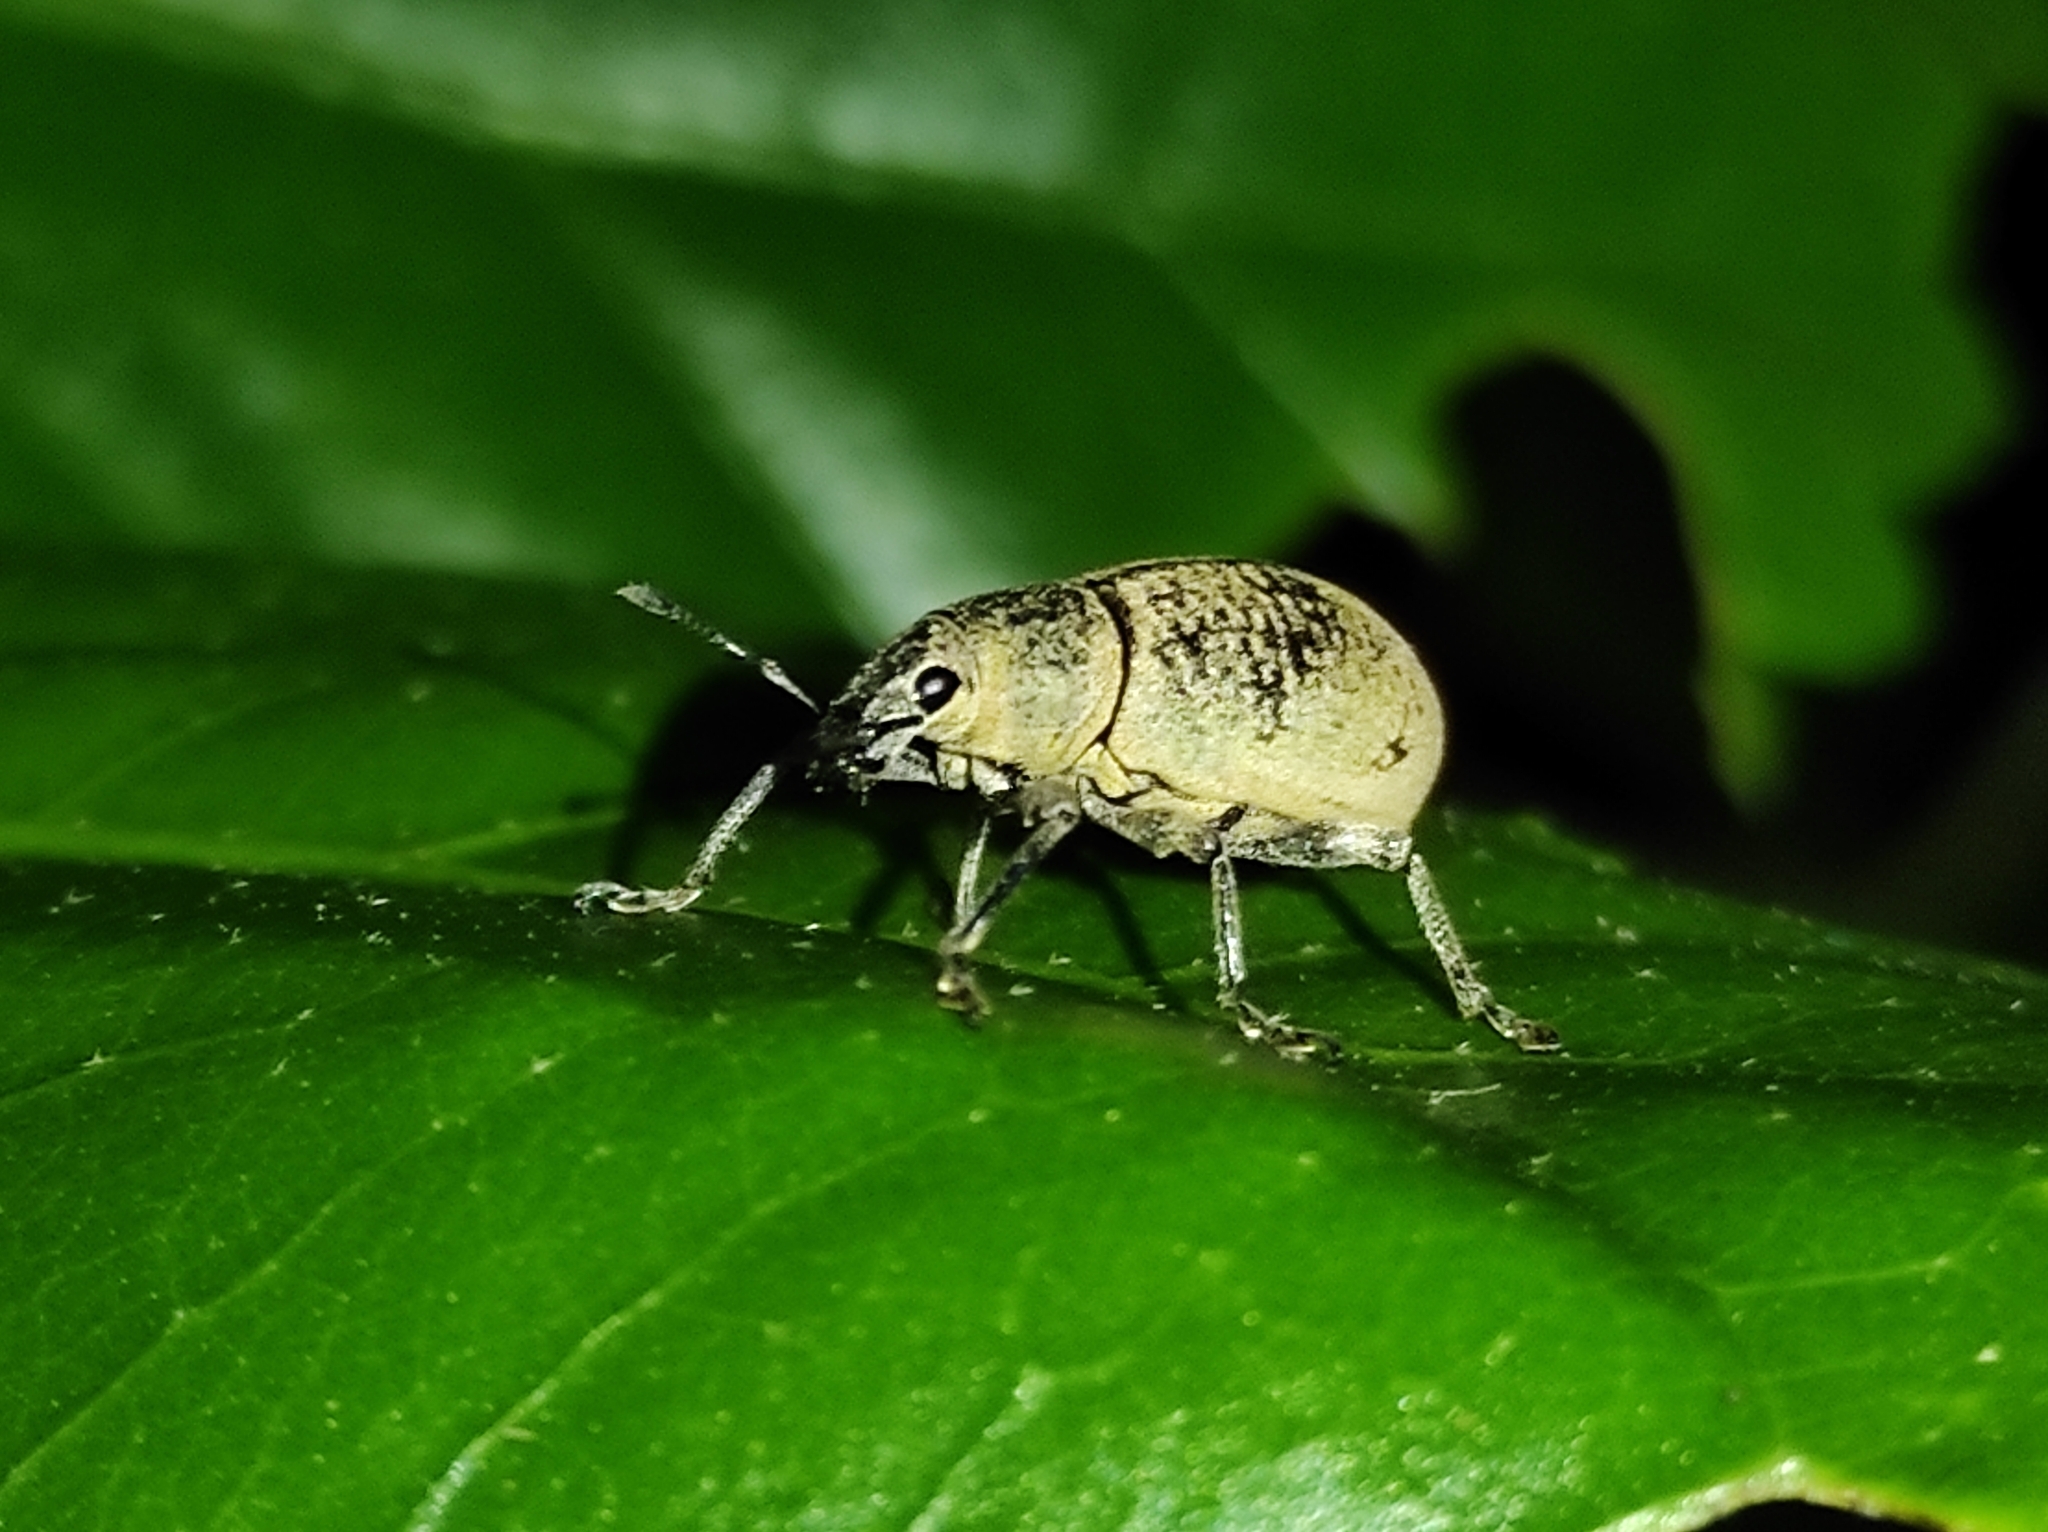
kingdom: Animalia
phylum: Arthropoda
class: Insecta
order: Coleoptera
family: Curculionidae
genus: Cleistolophus
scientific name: Cleistolophus similis
